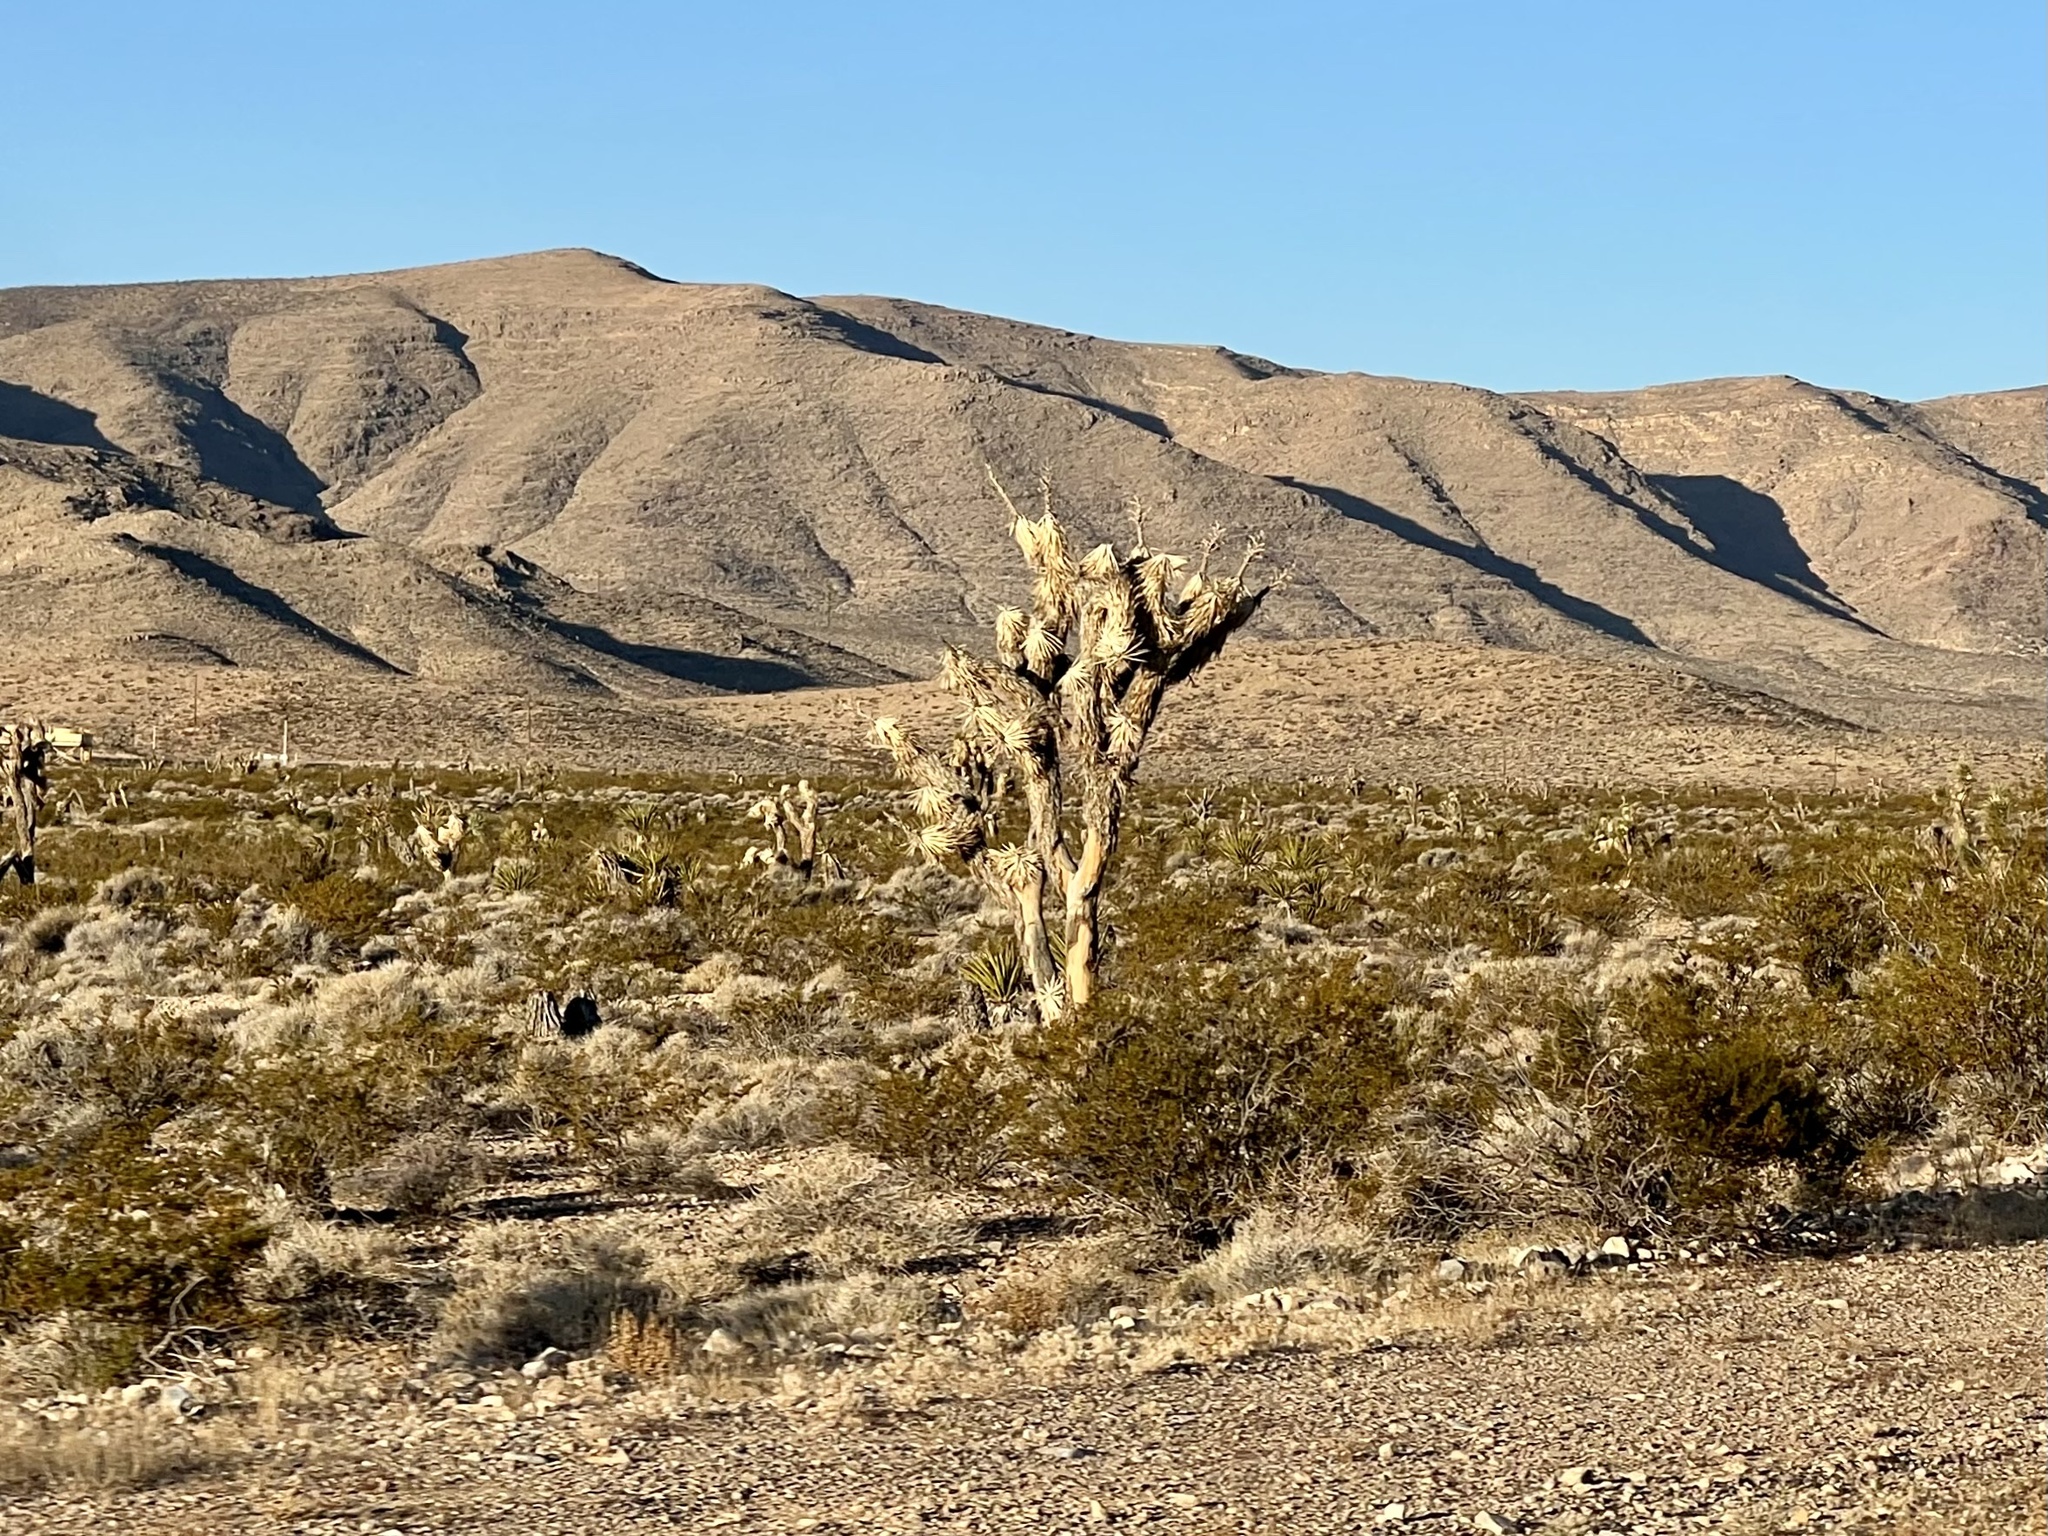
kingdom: Plantae
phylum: Tracheophyta
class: Liliopsida
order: Asparagales
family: Asparagaceae
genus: Yucca
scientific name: Yucca brevifolia
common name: Joshua tree
